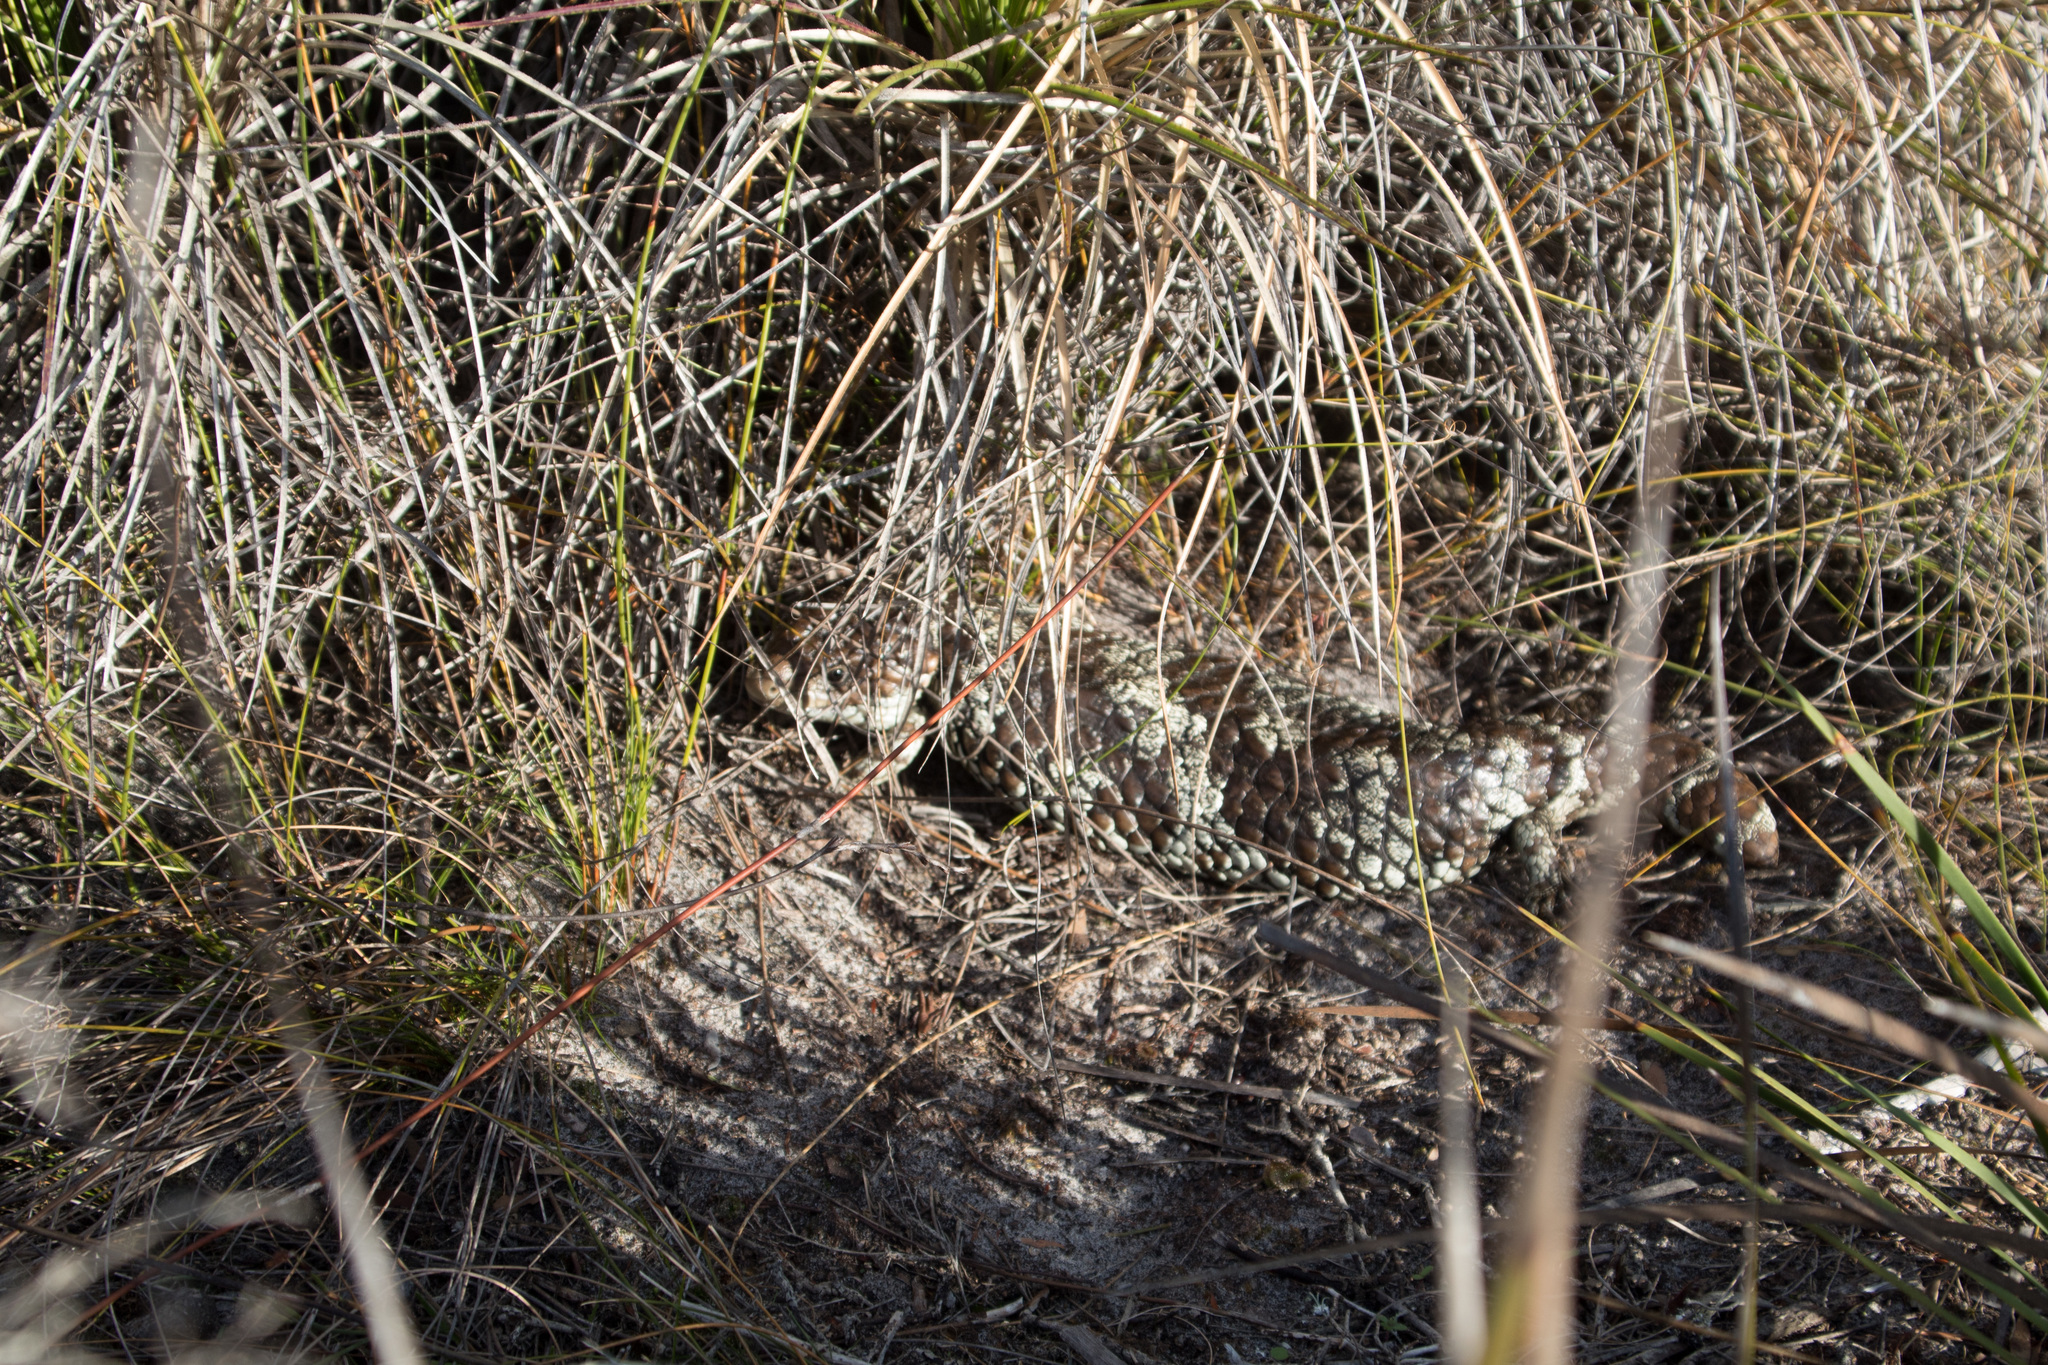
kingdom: Animalia
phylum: Chordata
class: Squamata
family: Scincidae
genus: Tiliqua
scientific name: Tiliqua rugosa
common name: Pinecone lizard
